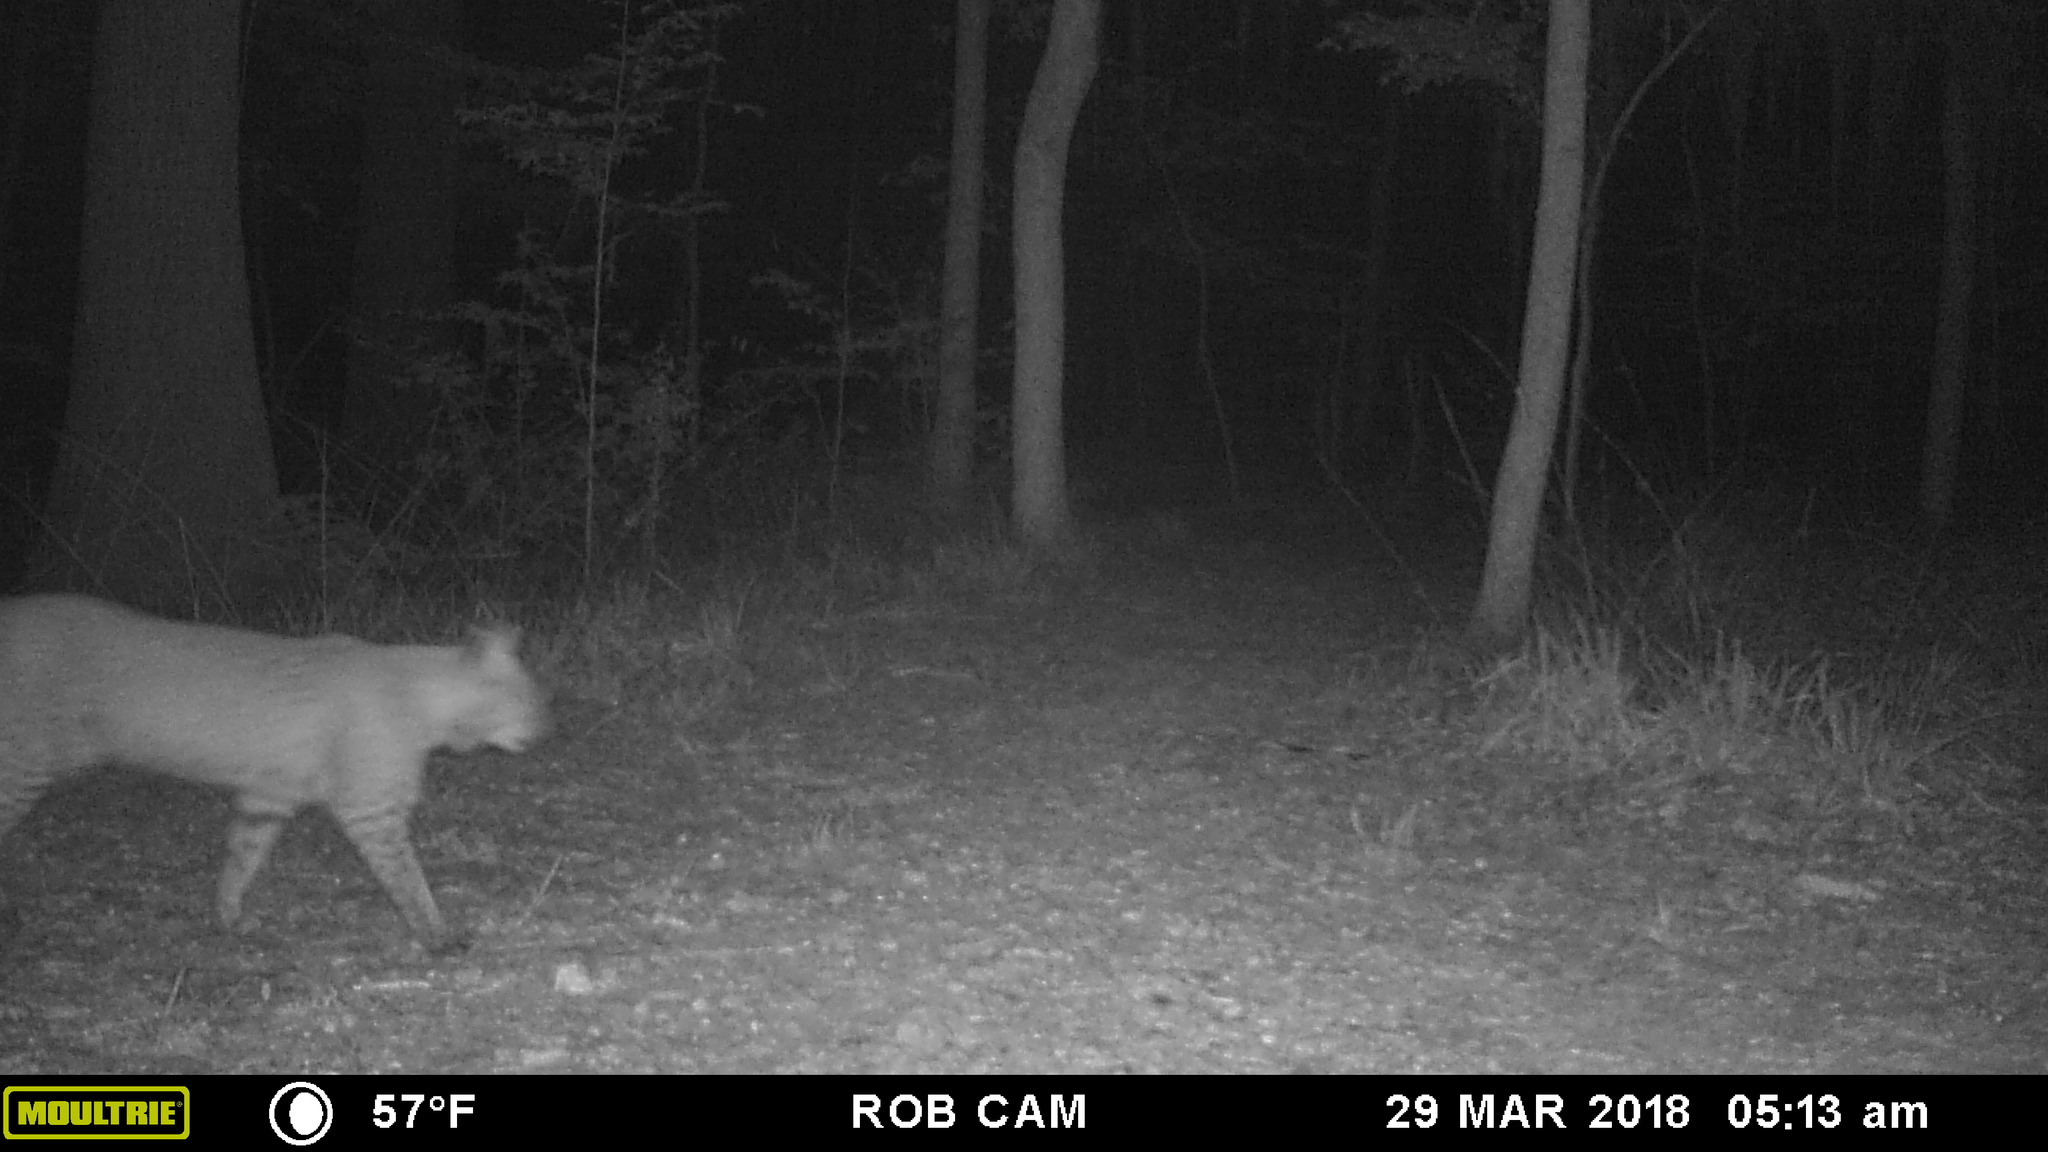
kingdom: Animalia
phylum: Chordata
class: Mammalia
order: Carnivora
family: Felidae
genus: Lynx
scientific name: Lynx rufus
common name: Bobcat
